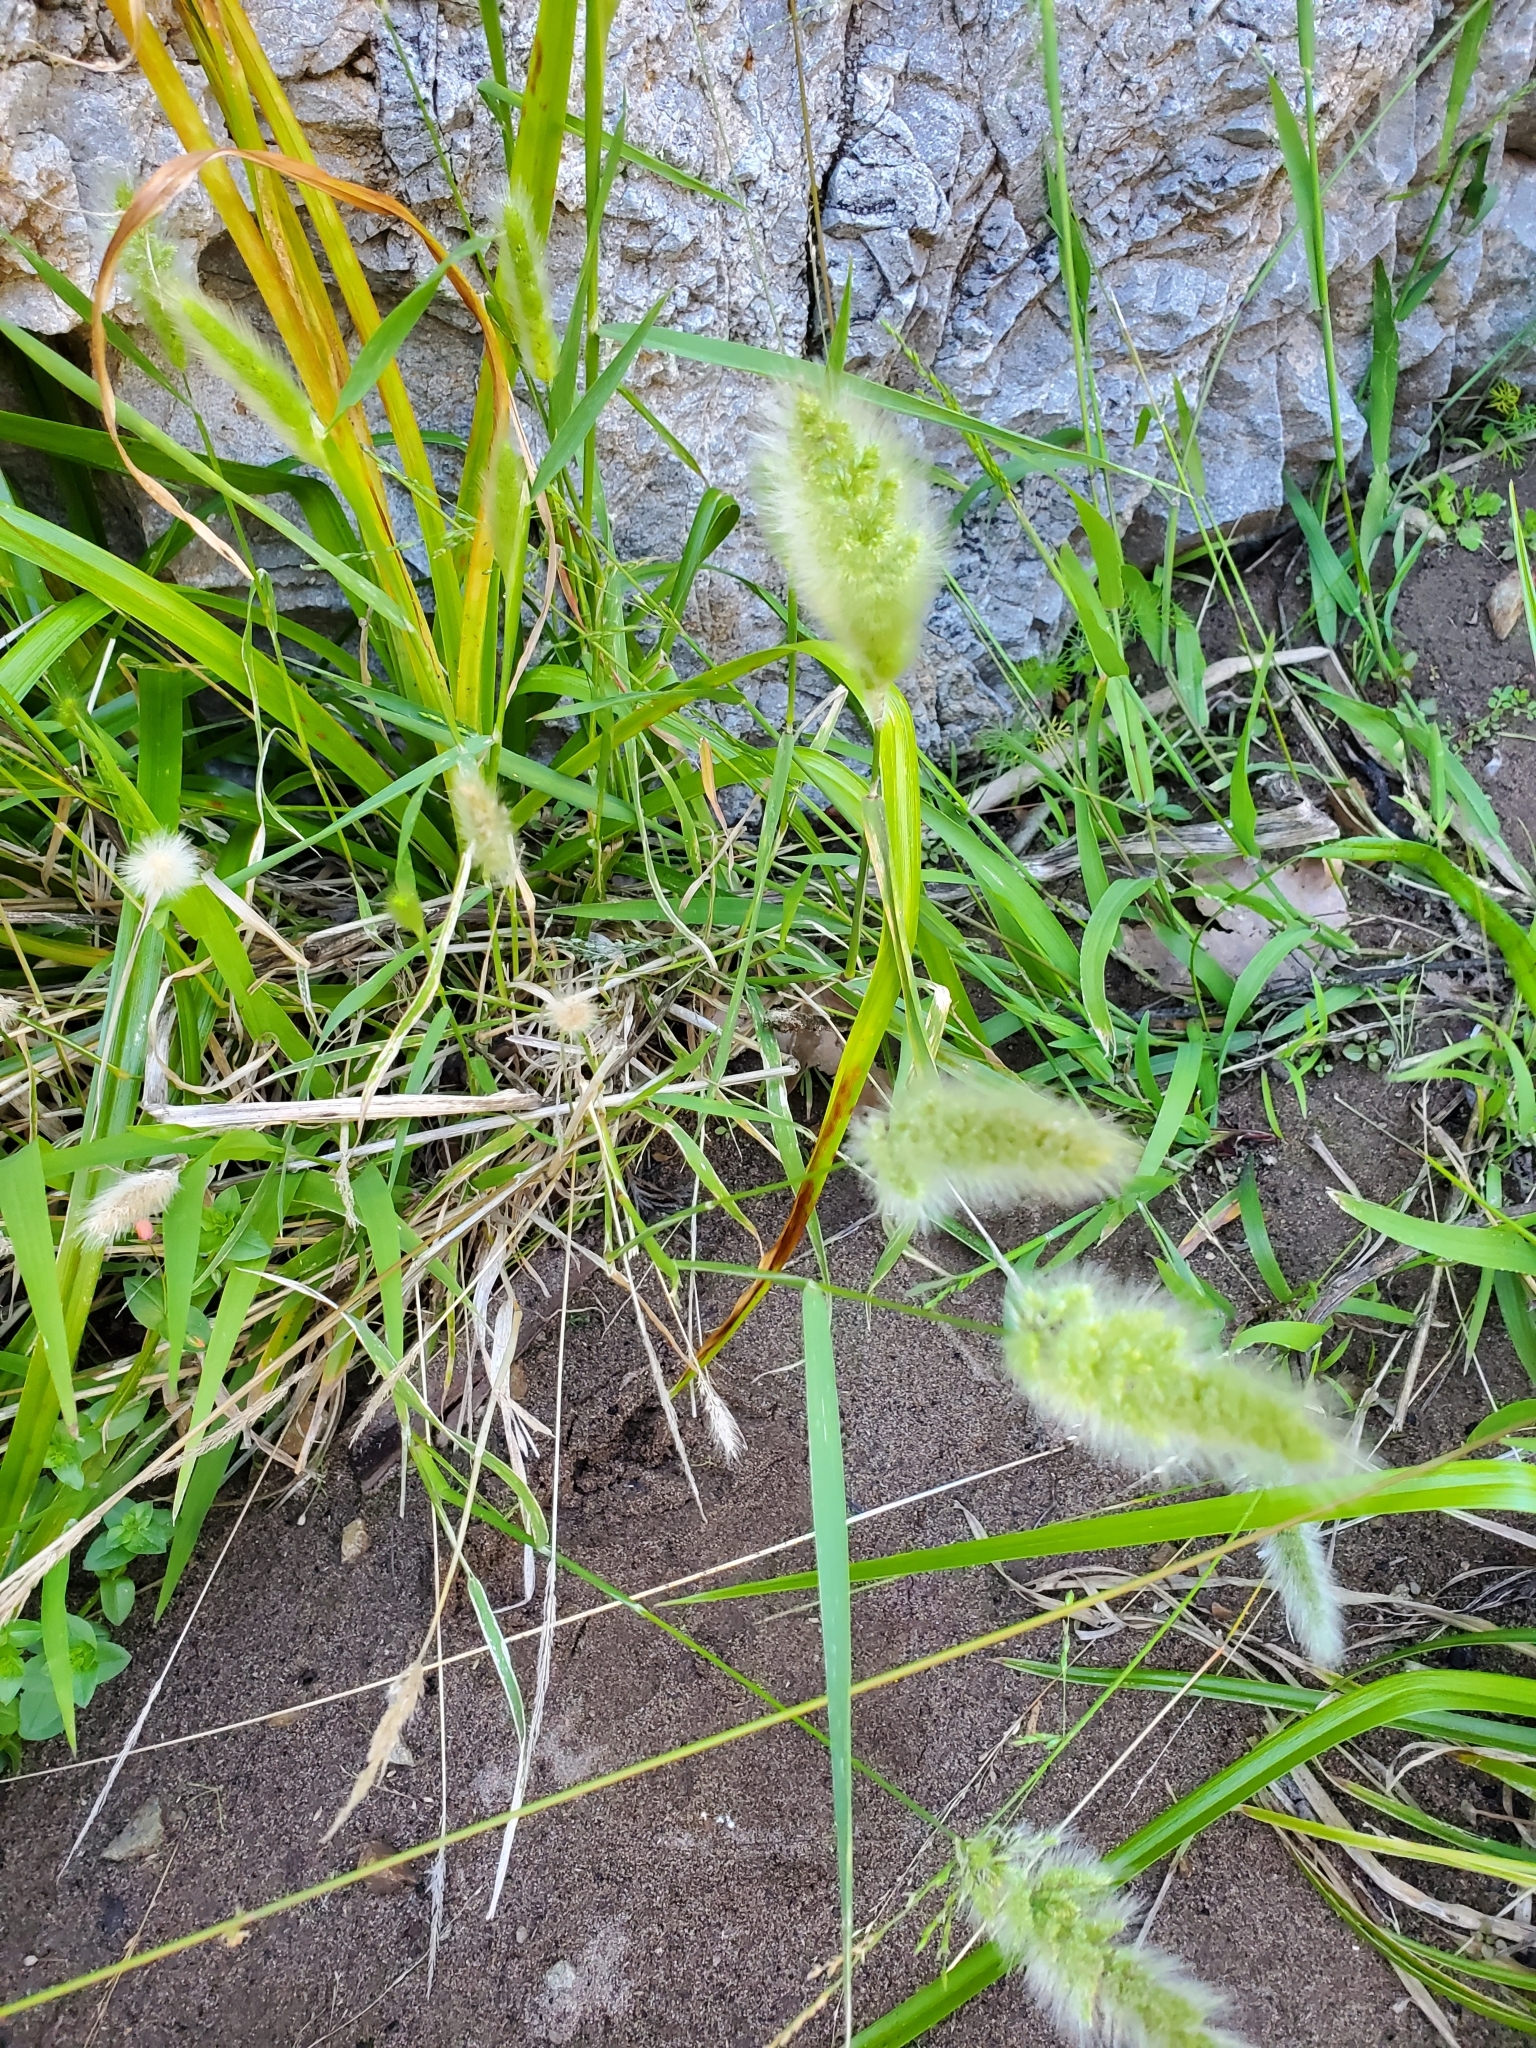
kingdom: Plantae
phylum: Tracheophyta
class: Liliopsida
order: Poales
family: Poaceae
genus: Polypogon
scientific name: Polypogon monspeliensis
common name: Annual rabbitsfoot grass
